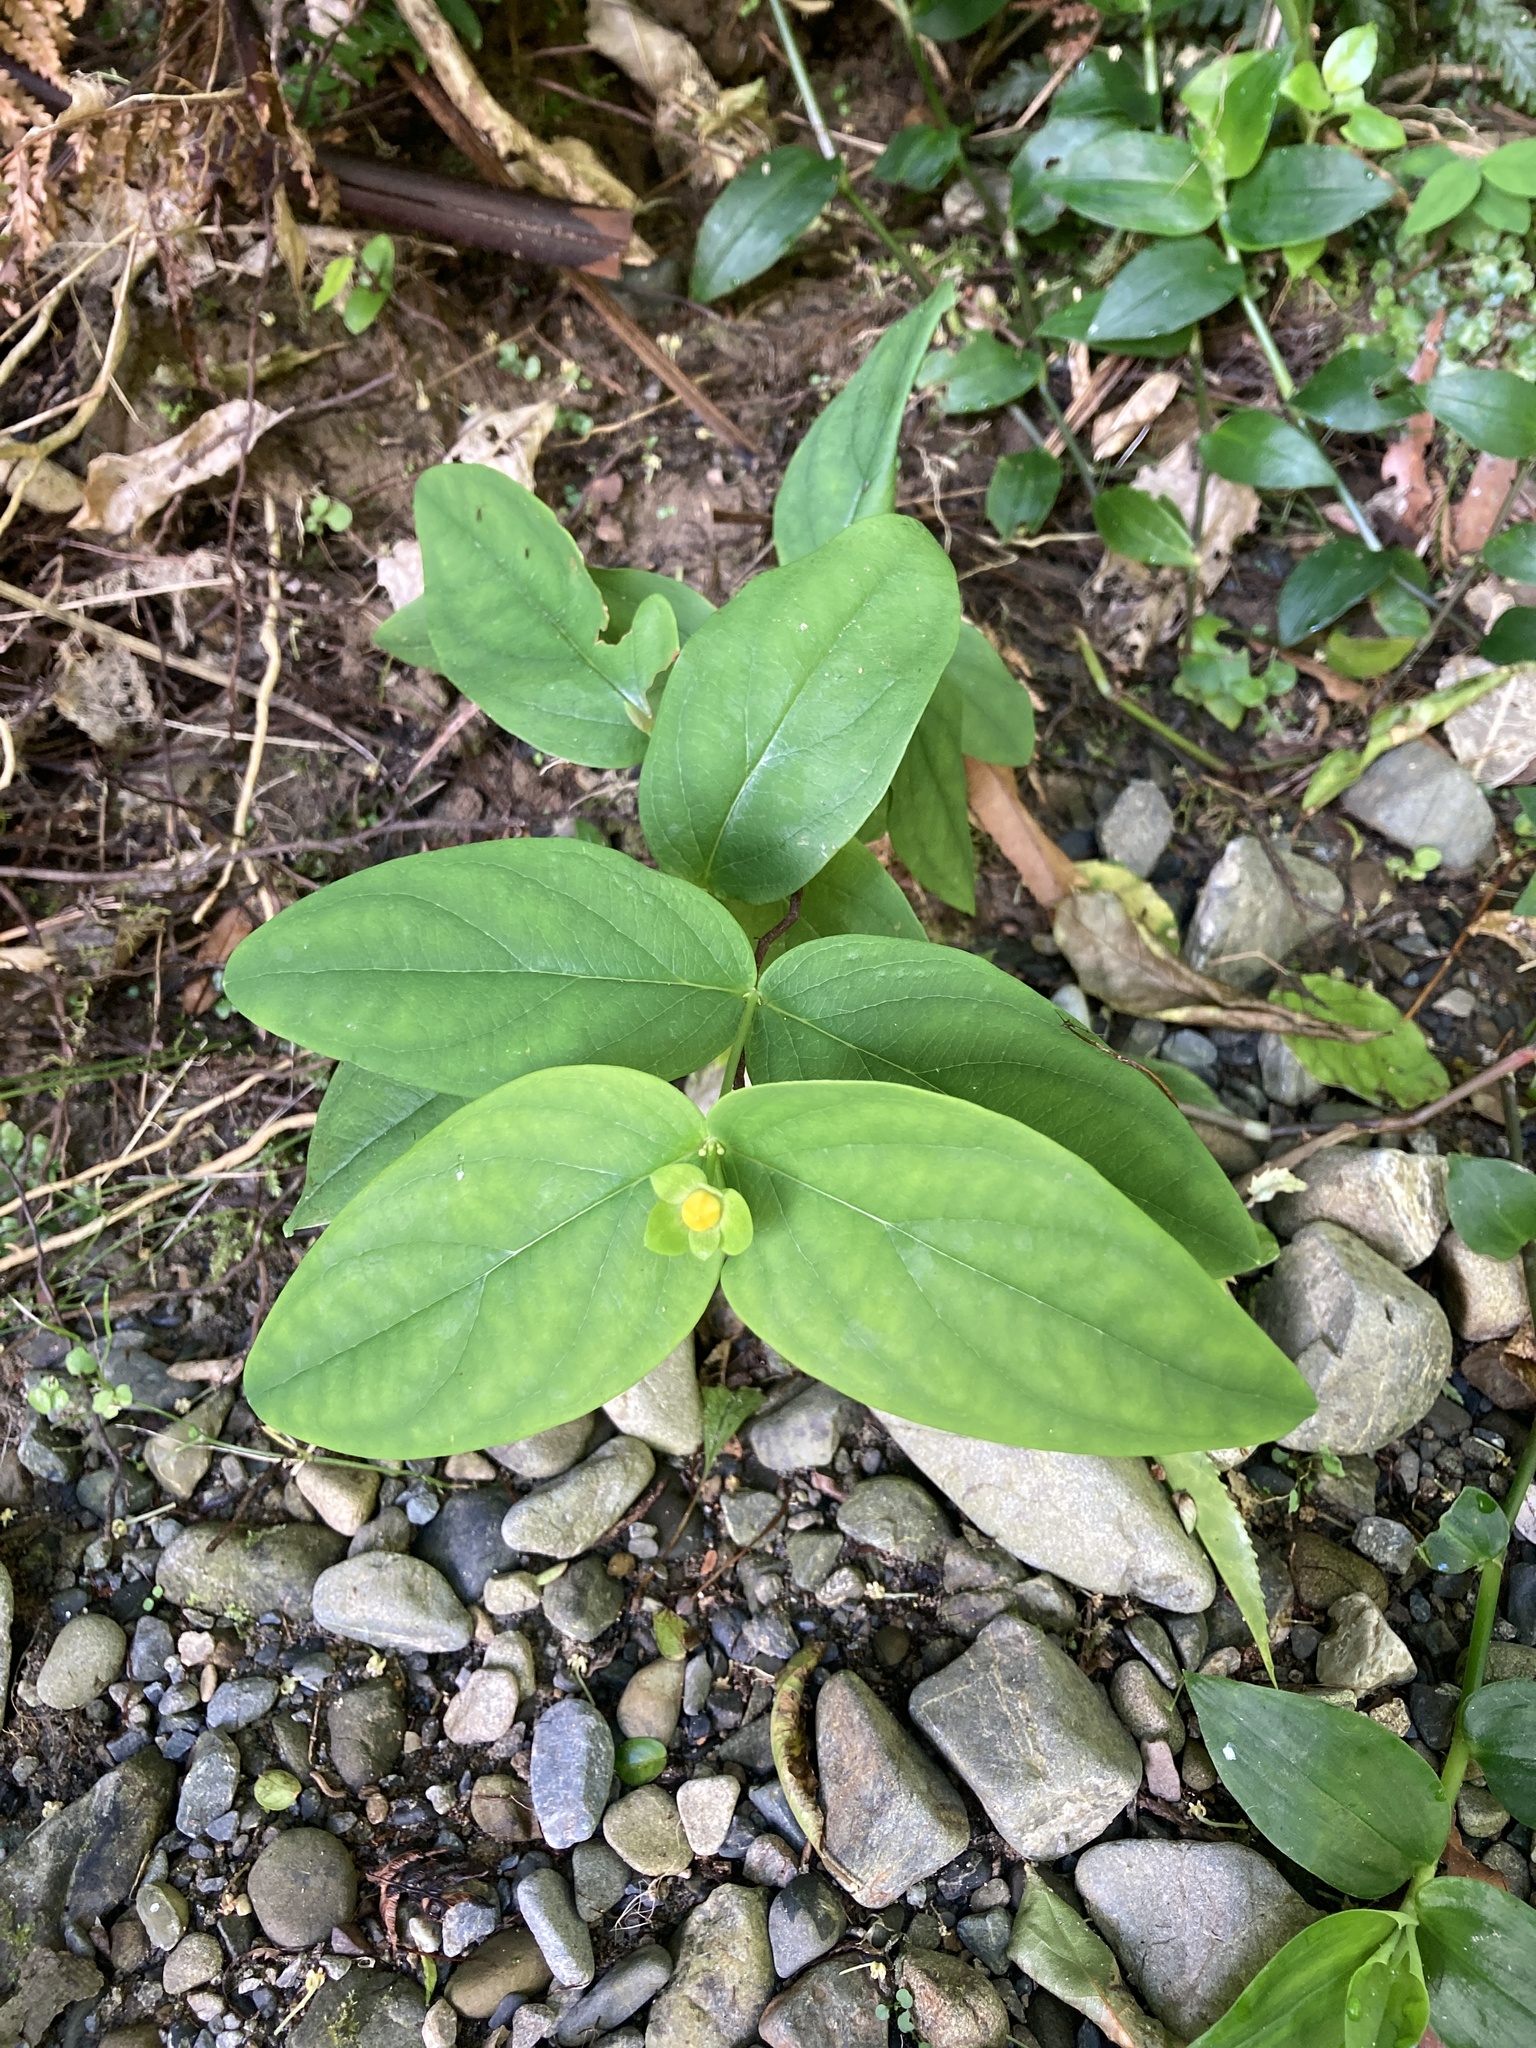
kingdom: Plantae
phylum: Tracheophyta
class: Magnoliopsida
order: Malpighiales
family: Hypericaceae
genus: Hypericum
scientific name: Hypericum androsaemum
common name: Sweet-amber
